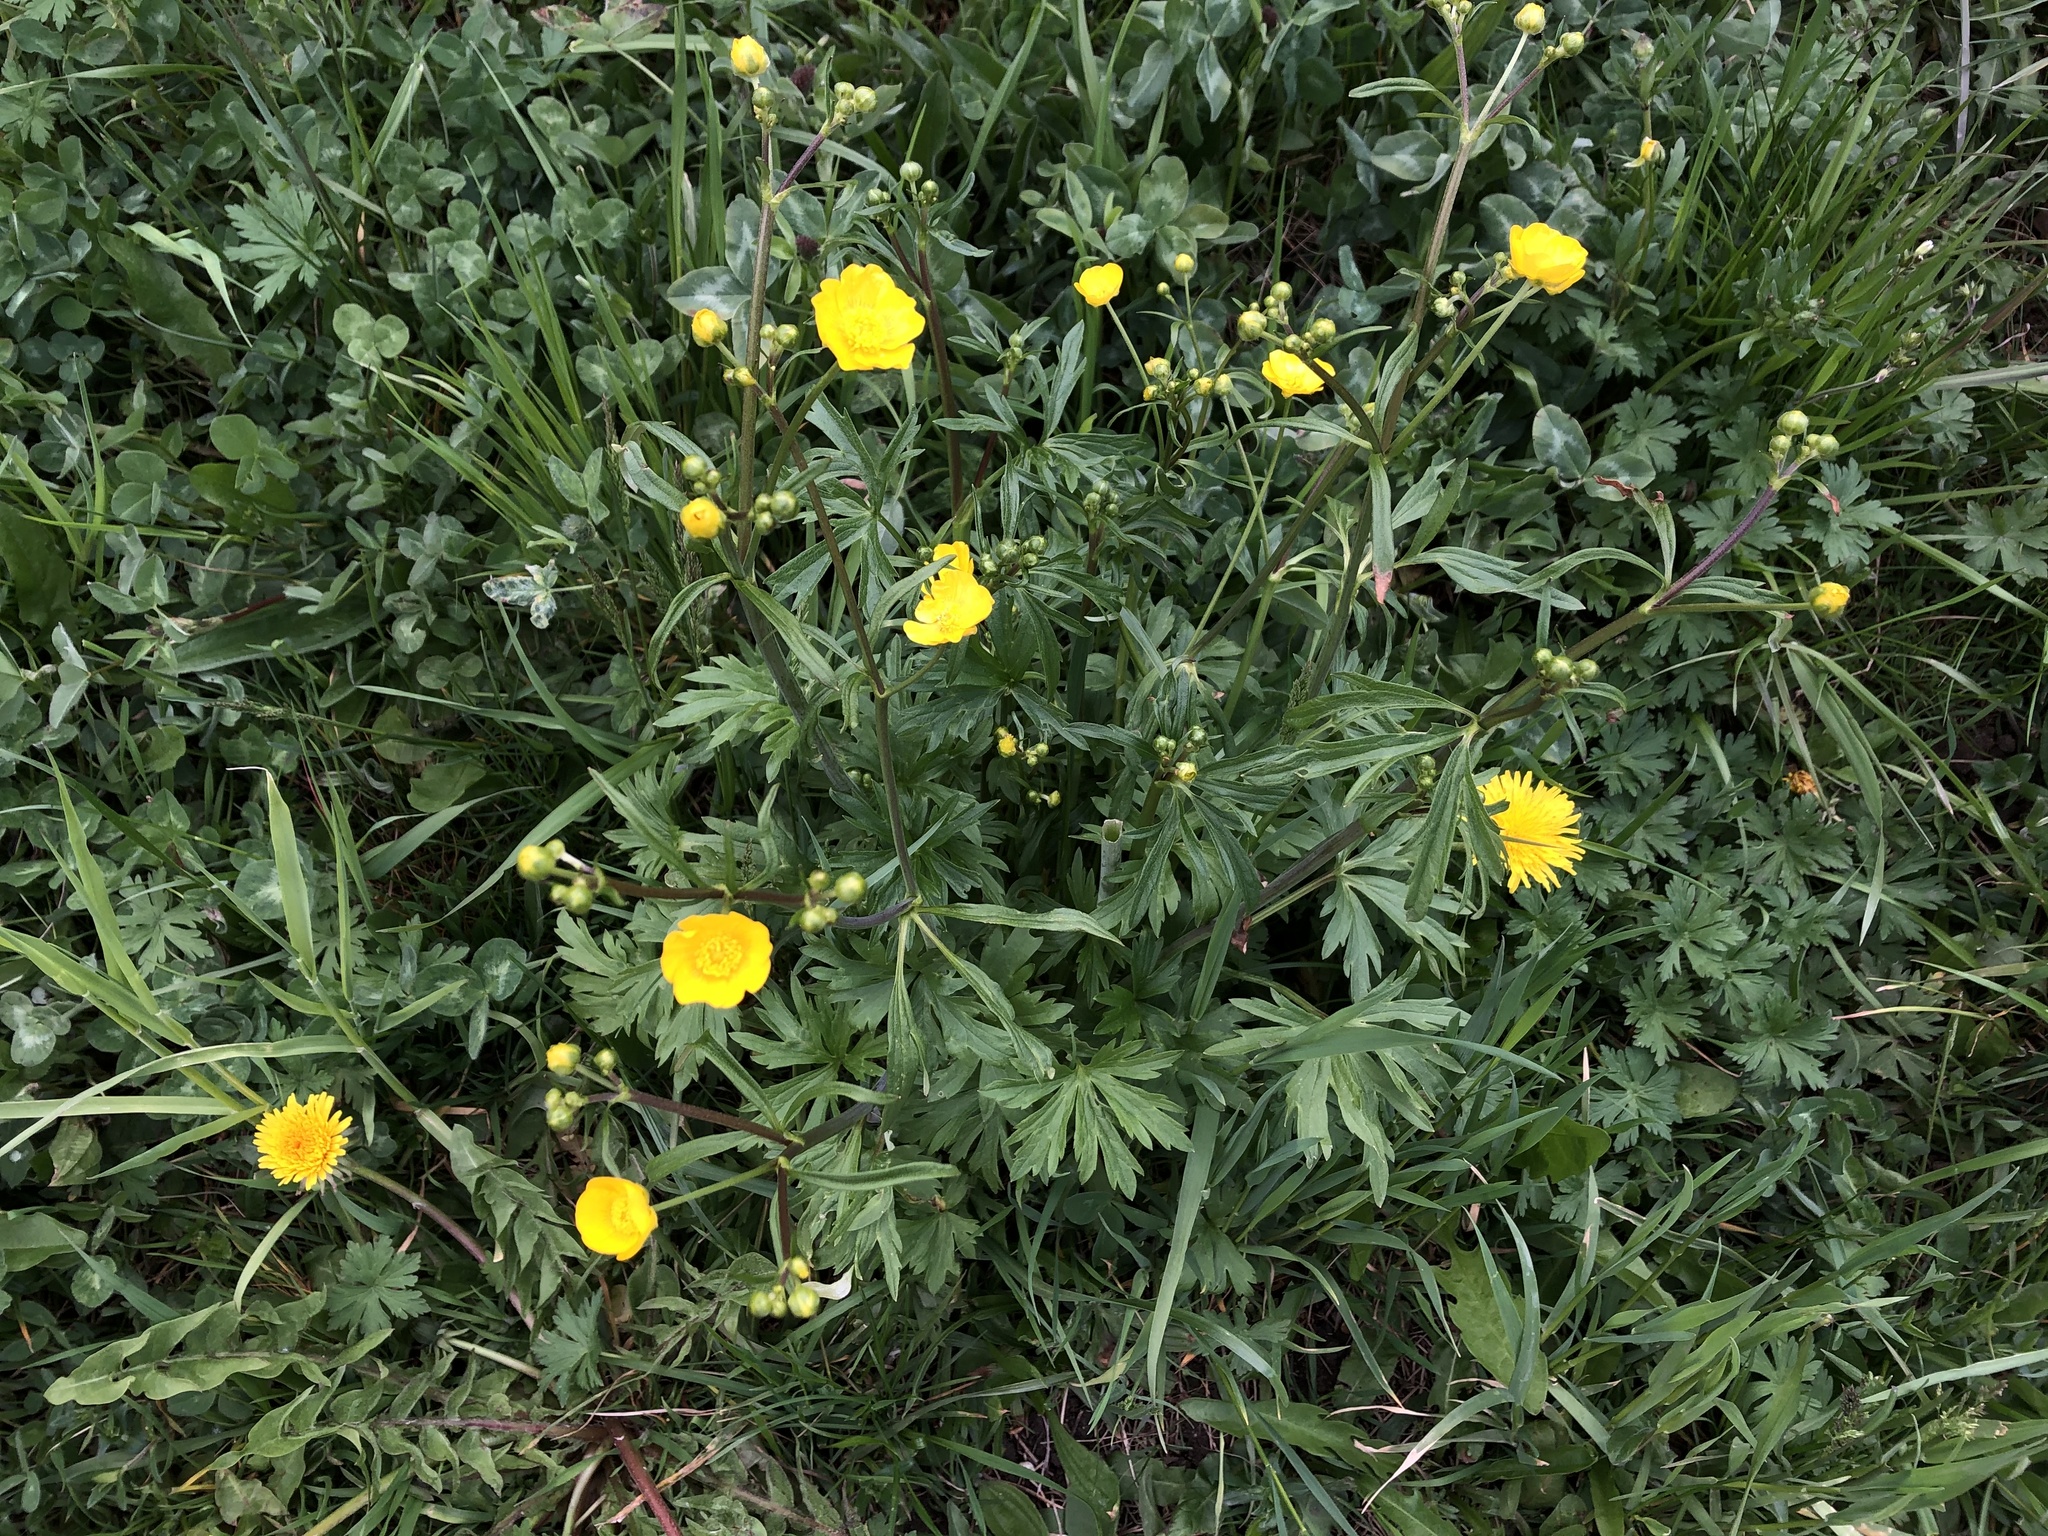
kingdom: Plantae
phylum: Tracheophyta
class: Magnoliopsida
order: Ranunculales
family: Ranunculaceae
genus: Ranunculus
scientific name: Ranunculus acris
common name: Meadow buttercup
